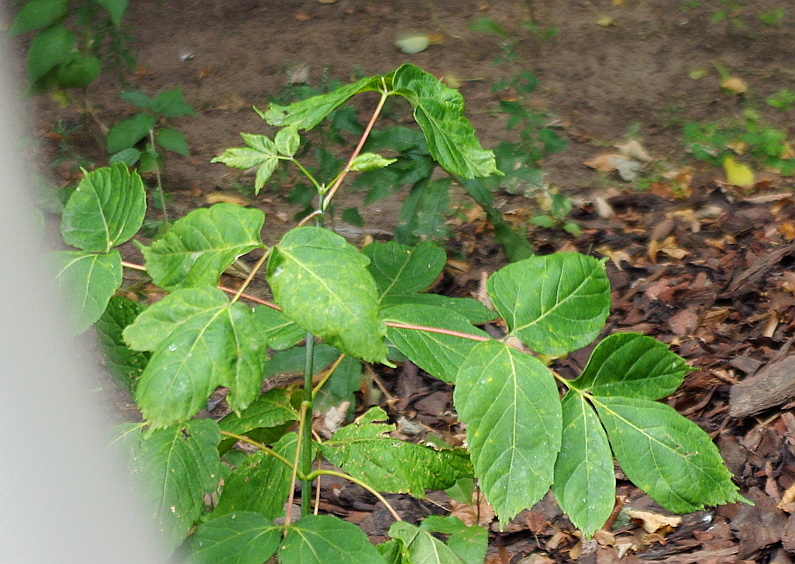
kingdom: Plantae
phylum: Tracheophyta
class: Magnoliopsida
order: Sapindales
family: Sapindaceae
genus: Acer
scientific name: Acer negundo
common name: Ashleaf maple
